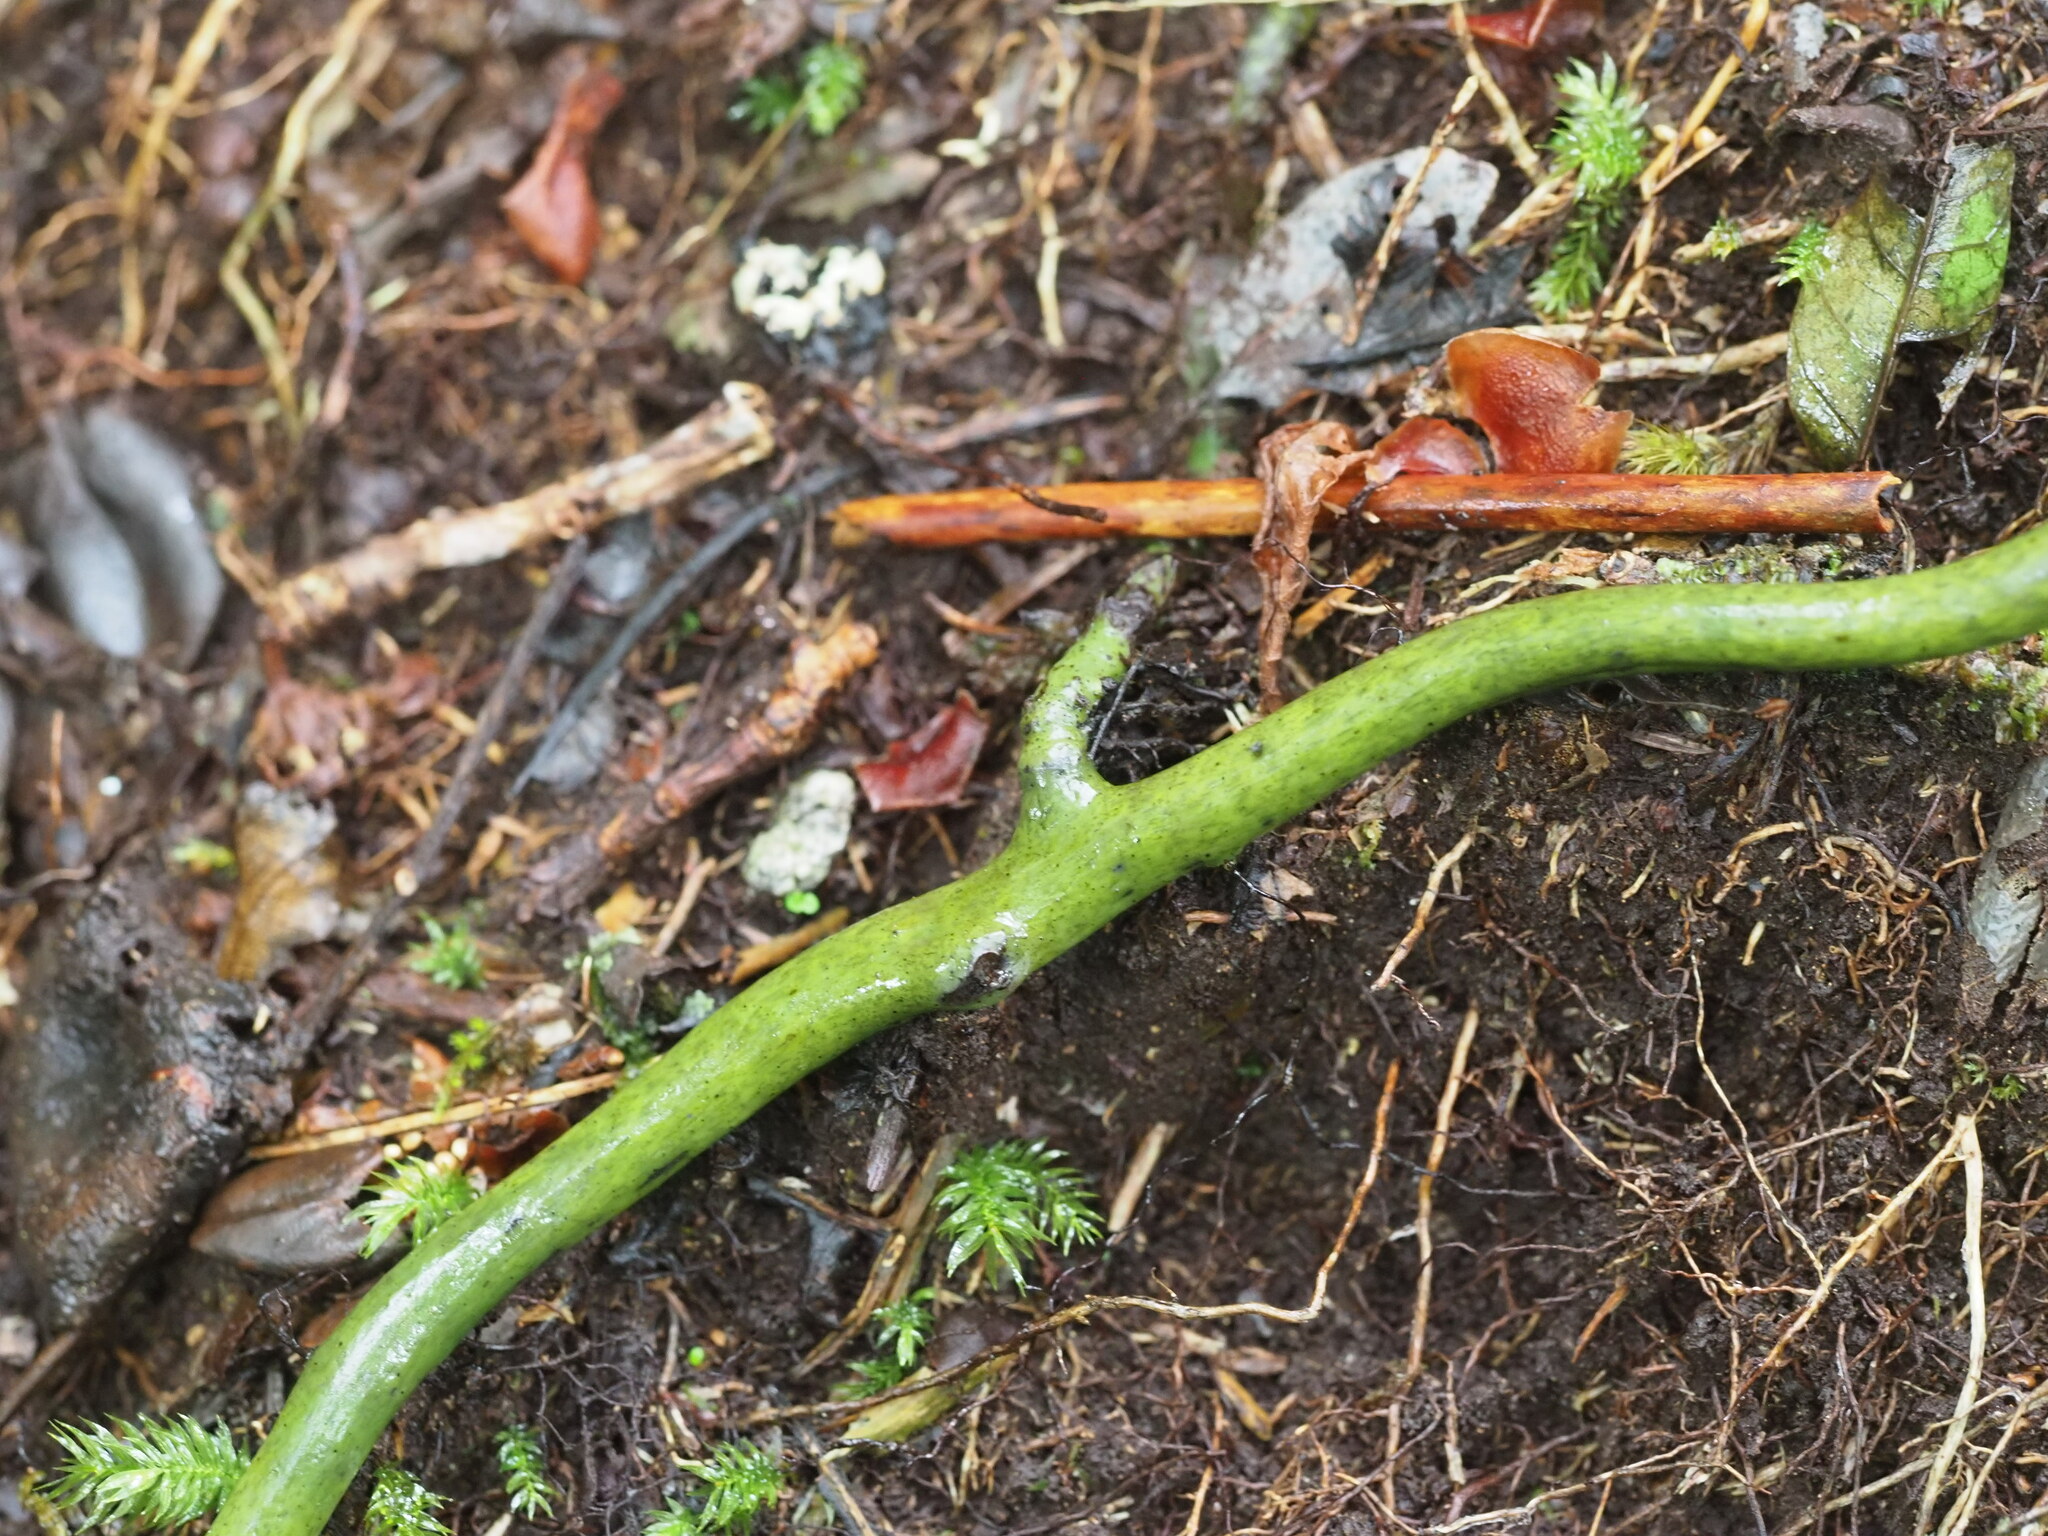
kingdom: Plantae
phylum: Tracheophyta
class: Polypodiopsida
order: Polypodiales
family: Polypodiaceae
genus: Microsorum
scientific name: Microsorum spectrum
